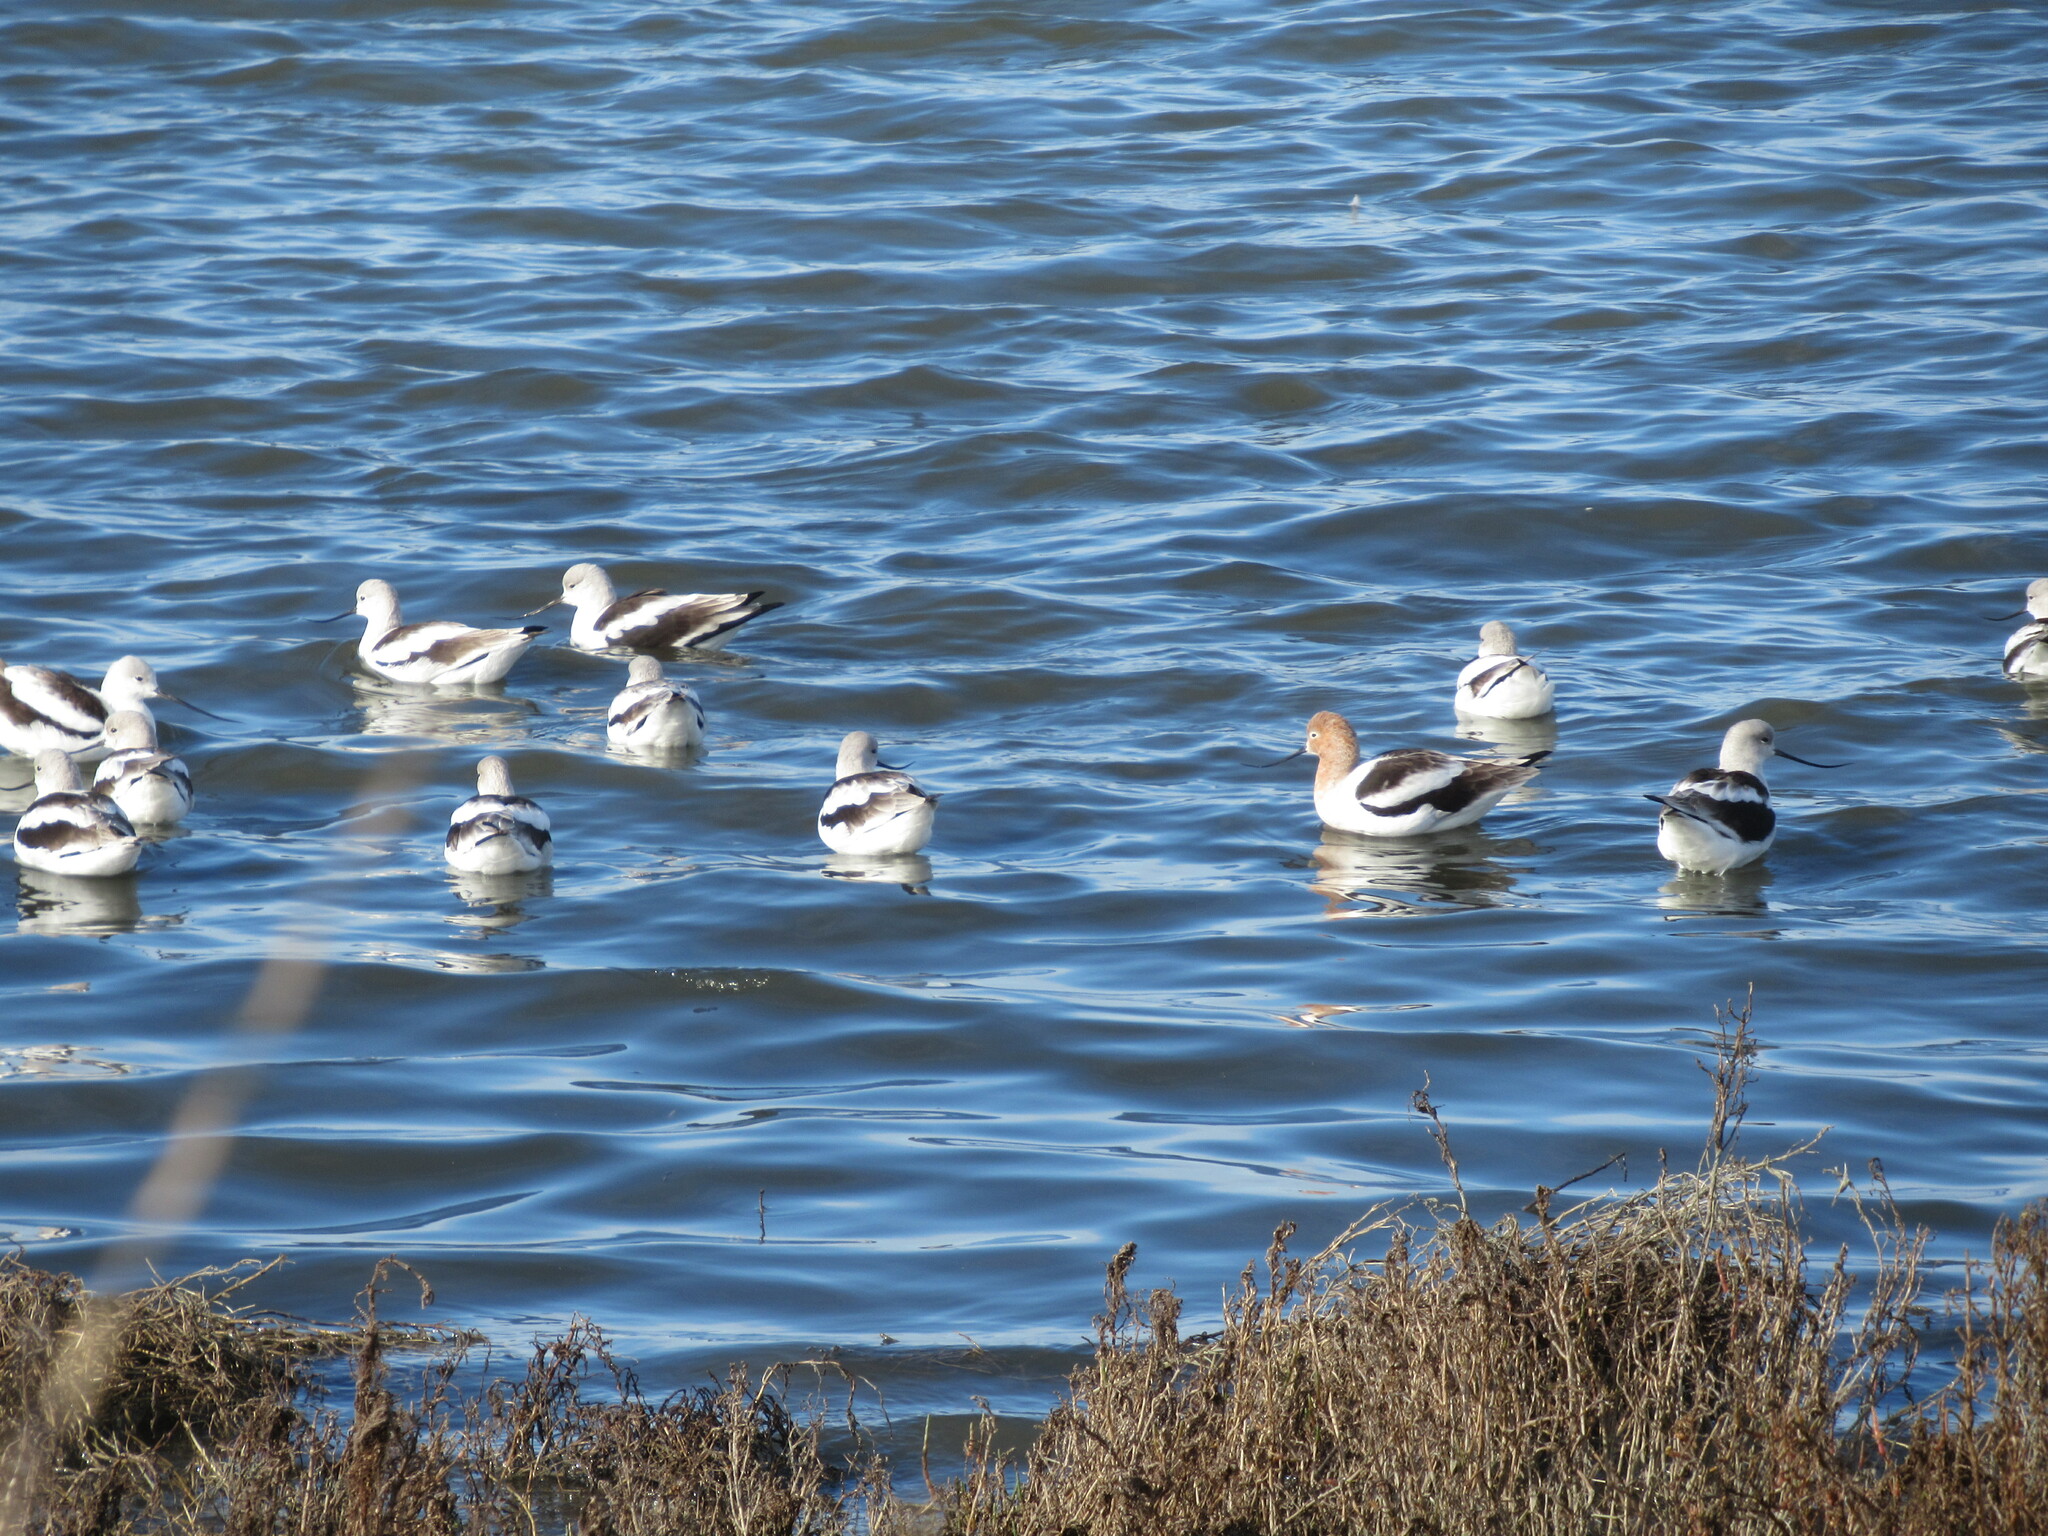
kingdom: Animalia
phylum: Chordata
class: Aves
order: Charadriiformes
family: Recurvirostridae
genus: Recurvirostra
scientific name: Recurvirostra americana
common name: American avocet
